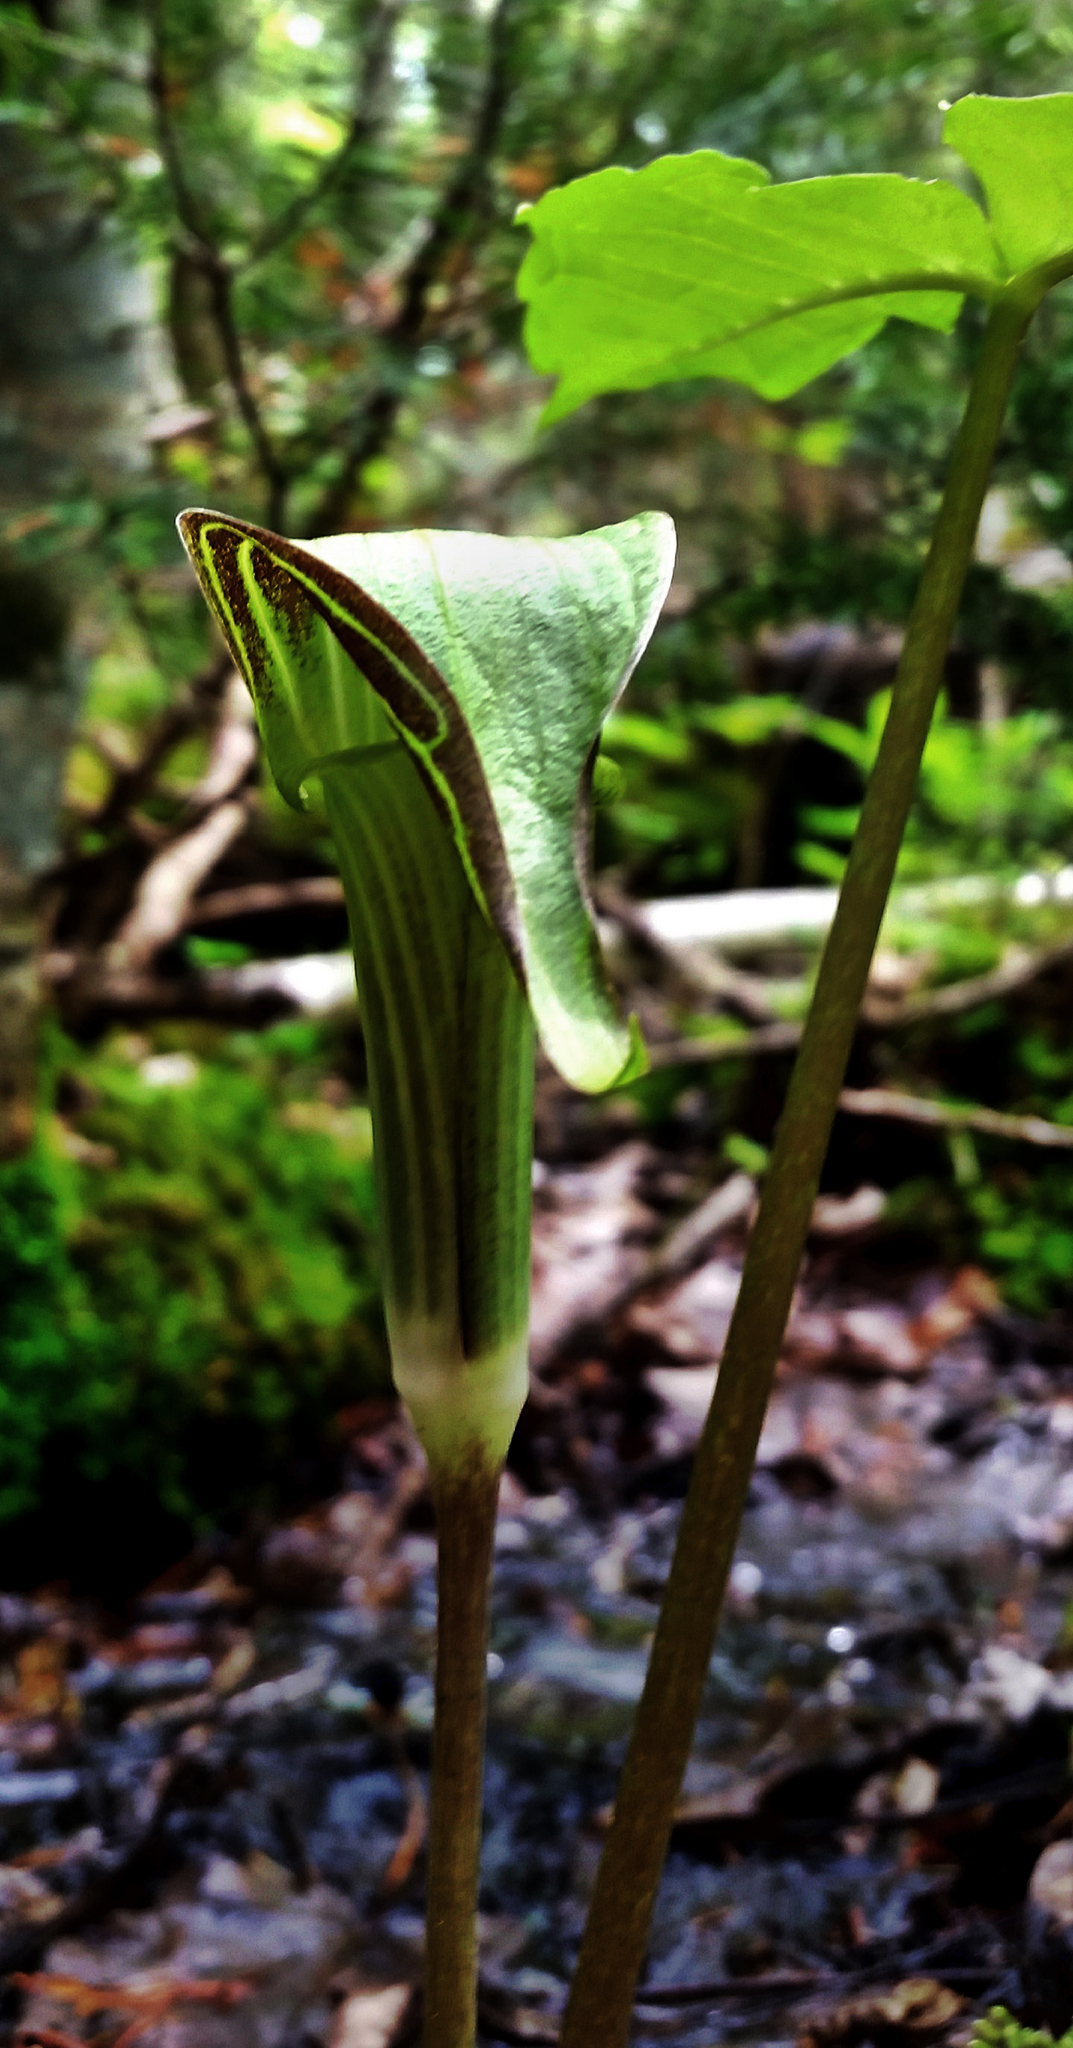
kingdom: Plantae
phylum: Tracheophyta
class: Liliopsida
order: Alismatales
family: Araceae
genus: Arisaema
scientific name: Arisaema triphyllum
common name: Jack-in-the-pulpit
